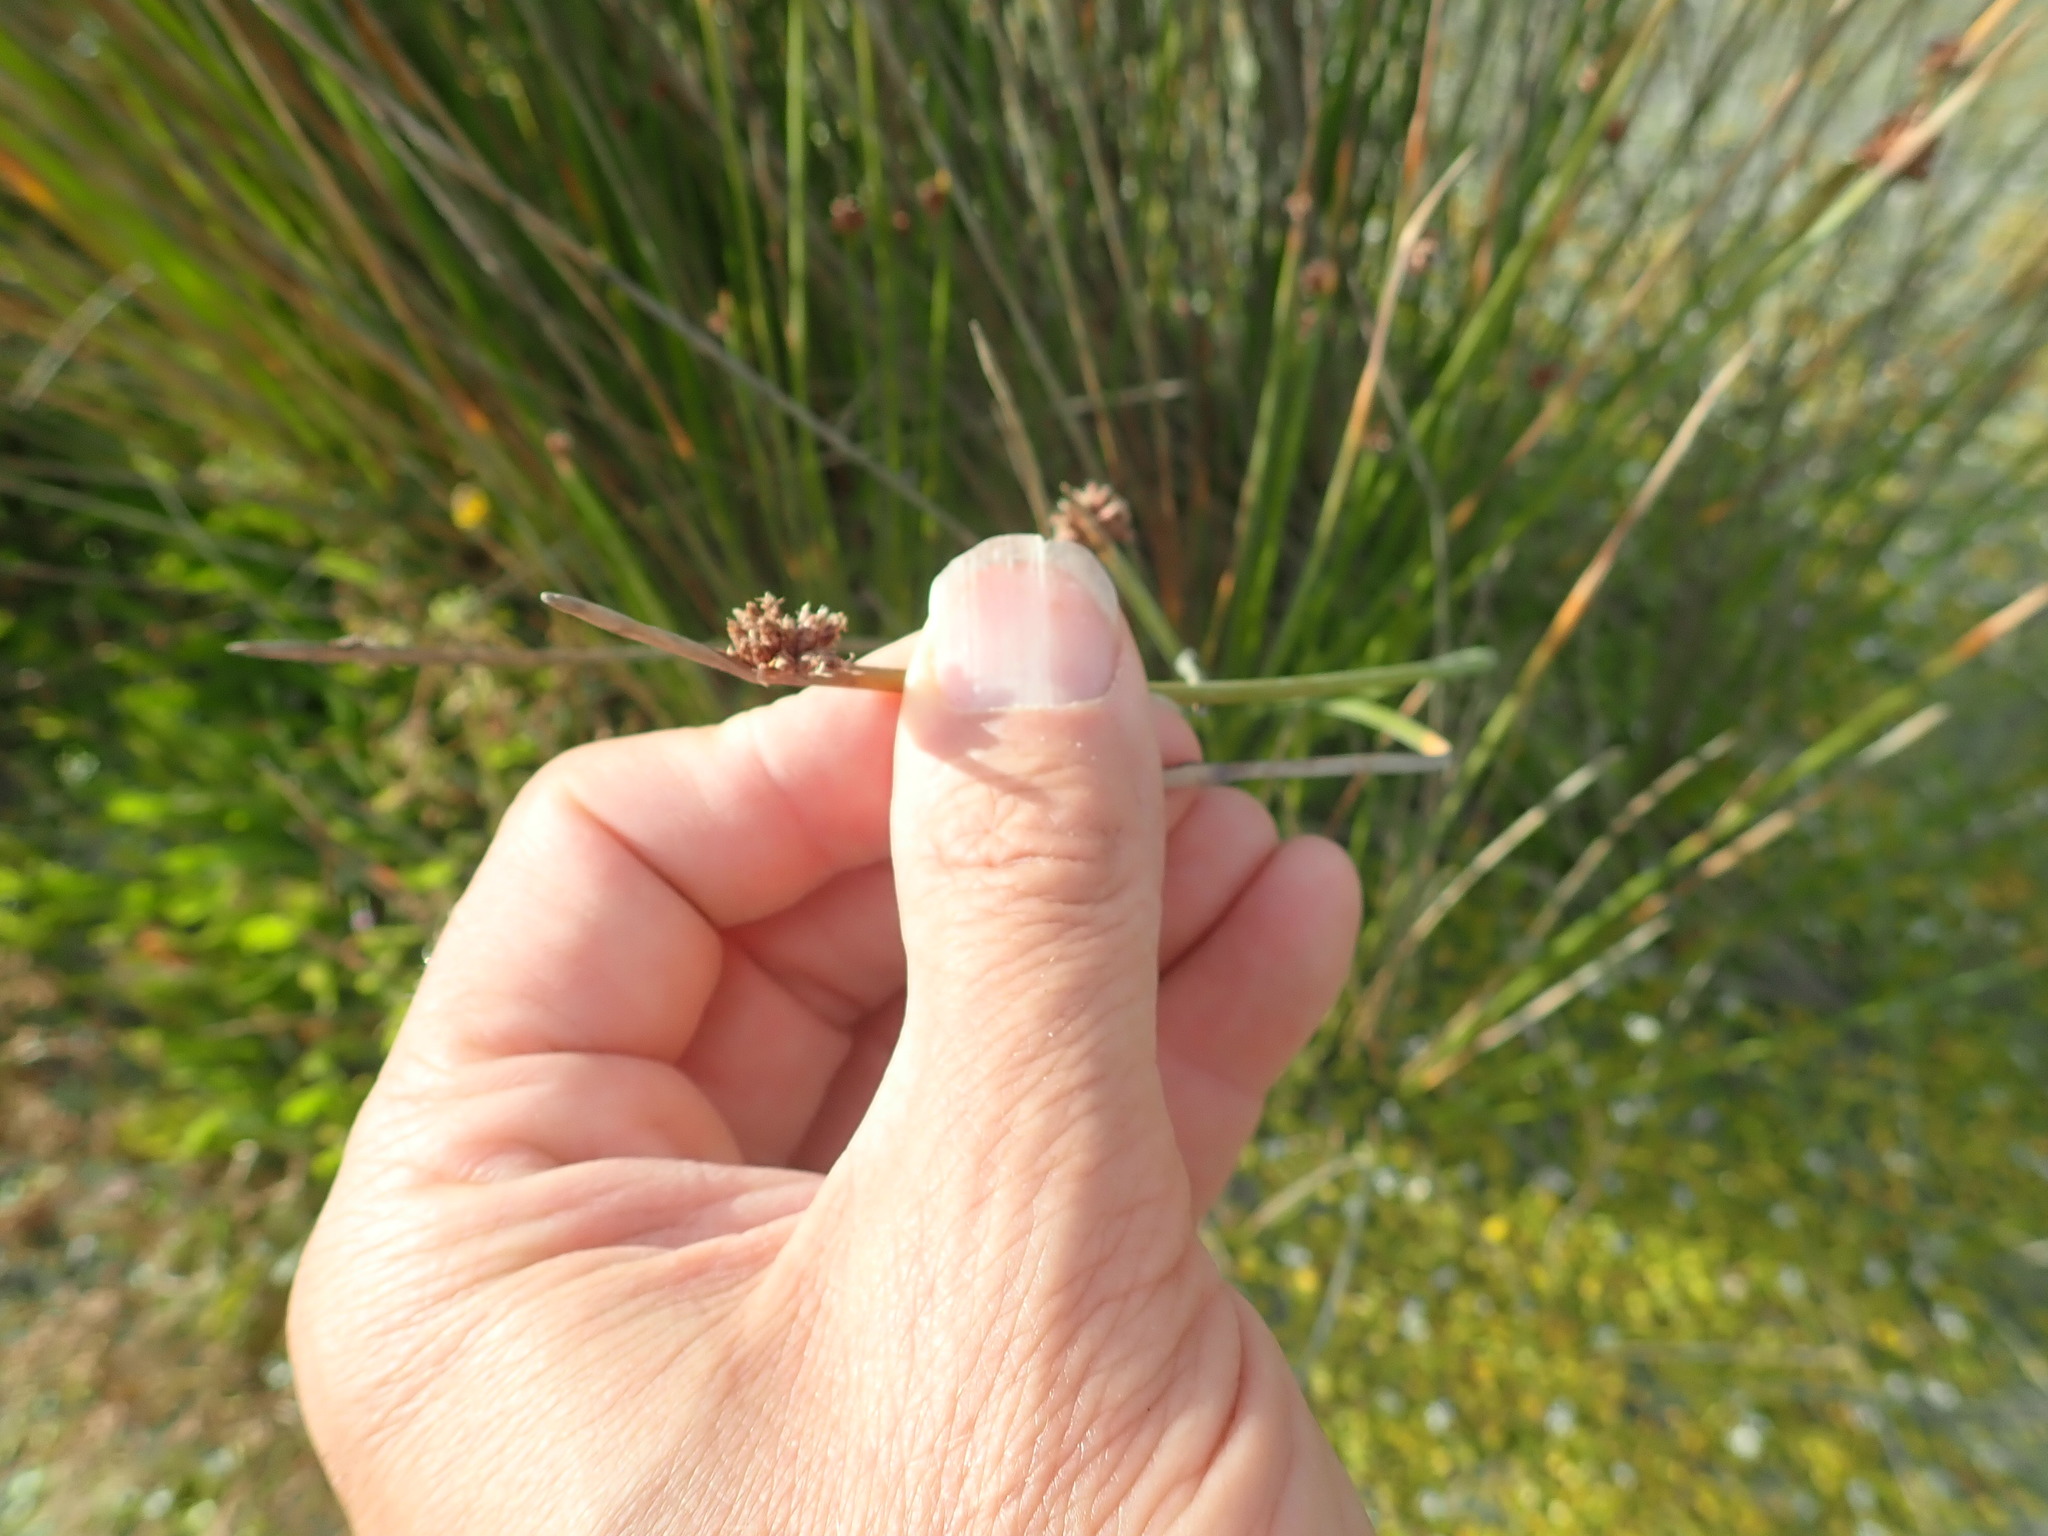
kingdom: Plantae
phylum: Tracheophyta
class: Liliopsida
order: Poales
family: Cyperaceae
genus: Ficinia
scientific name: Ficinia nodosa
